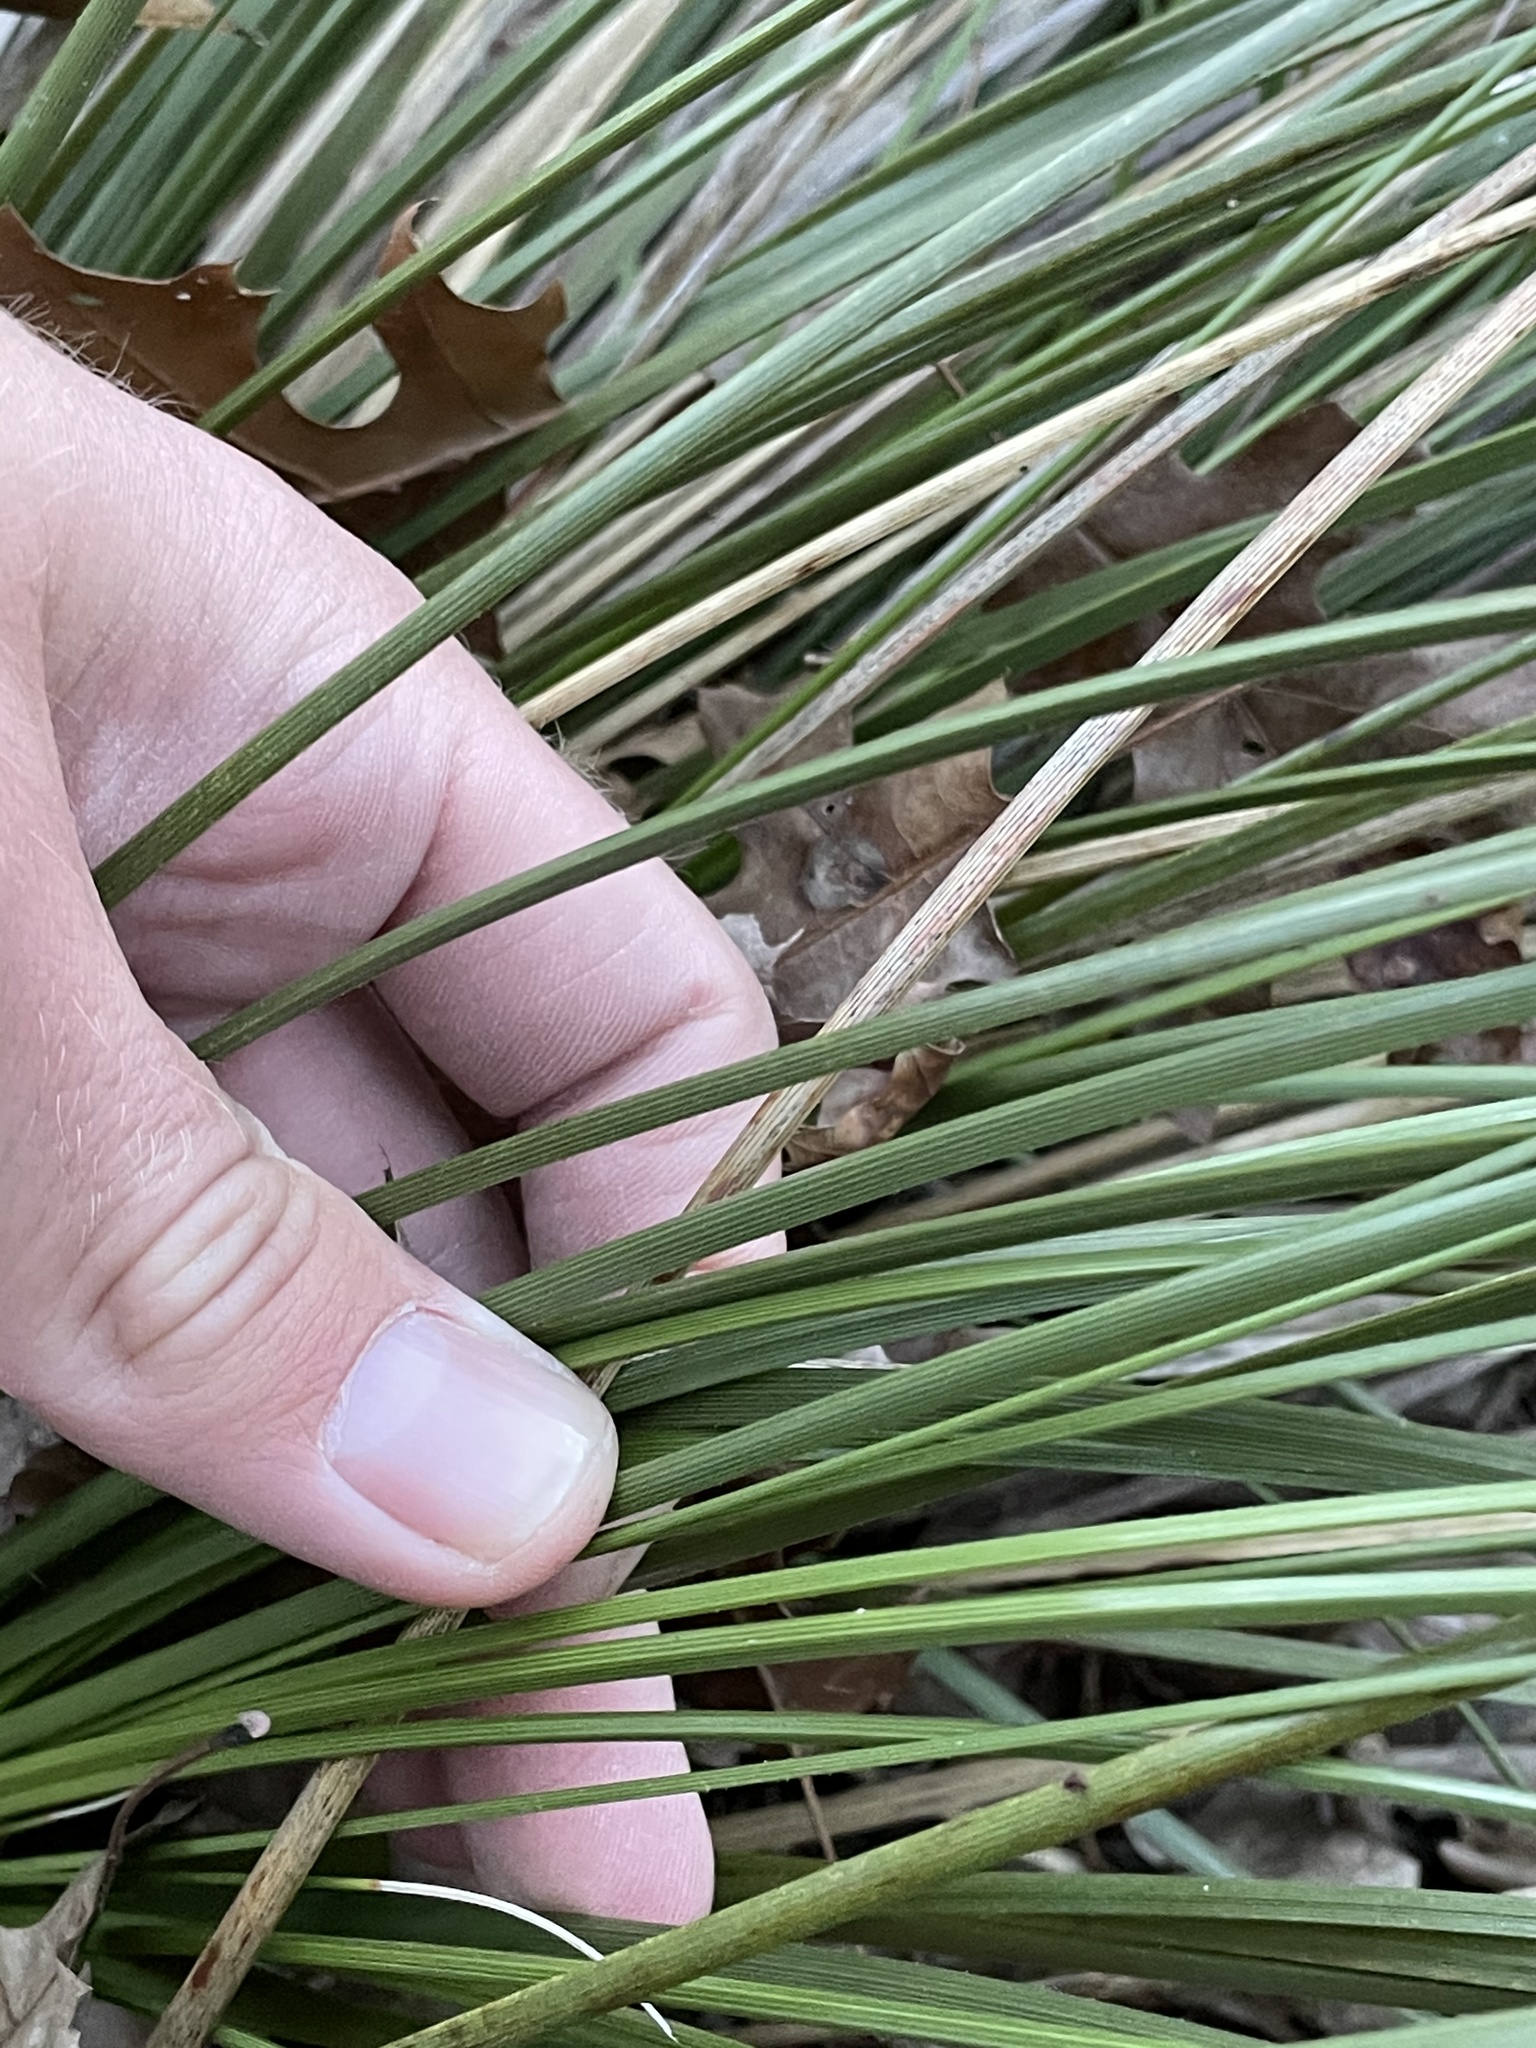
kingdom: Plantae
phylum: Tracheophyta
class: Liliopsida
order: Asparagales
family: Asparagaceae
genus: Nolina
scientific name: Nolina texana
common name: Texas sacahuiste
